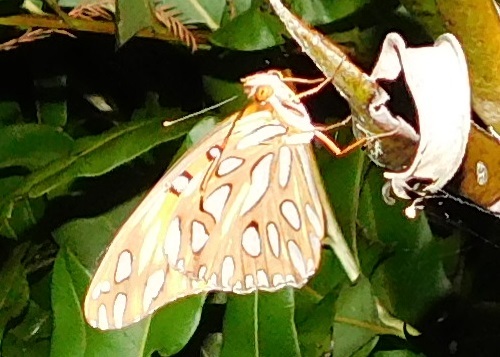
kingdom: Animalia
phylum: Arthropoda
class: Insecta
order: Lepidoptera
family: Nymphalidae
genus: Dione
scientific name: Dione vanillae
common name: Gulf fritillary
